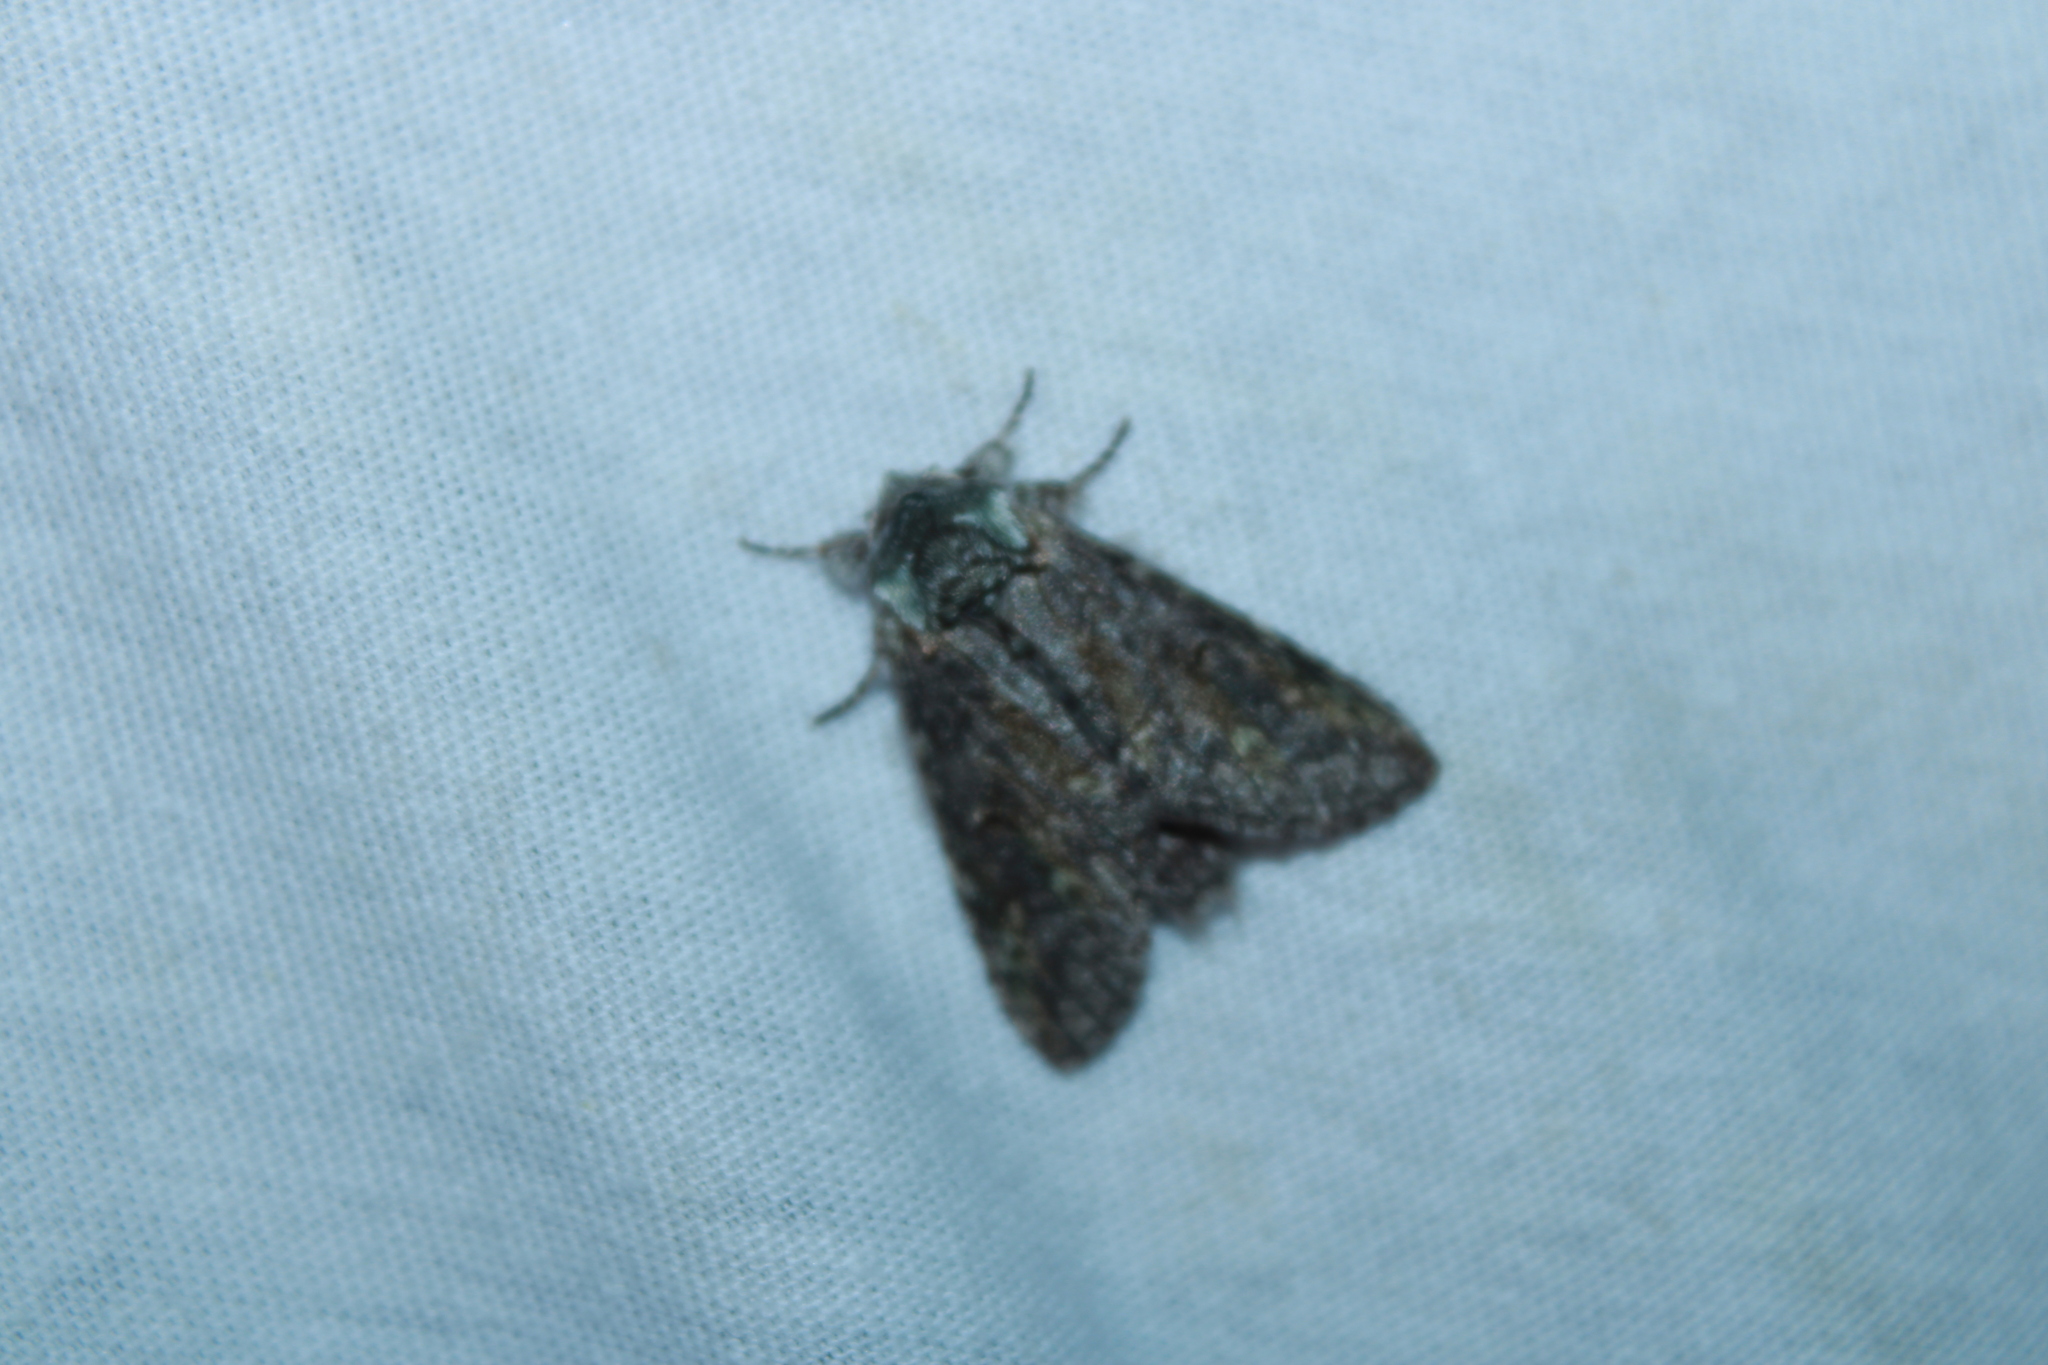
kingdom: Animalia
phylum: Arthropoda
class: Insecta
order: Lepidoptera
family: Notodontidae
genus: Macrurocampa
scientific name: Macrurocampa marthesia
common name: Mottled prominent
